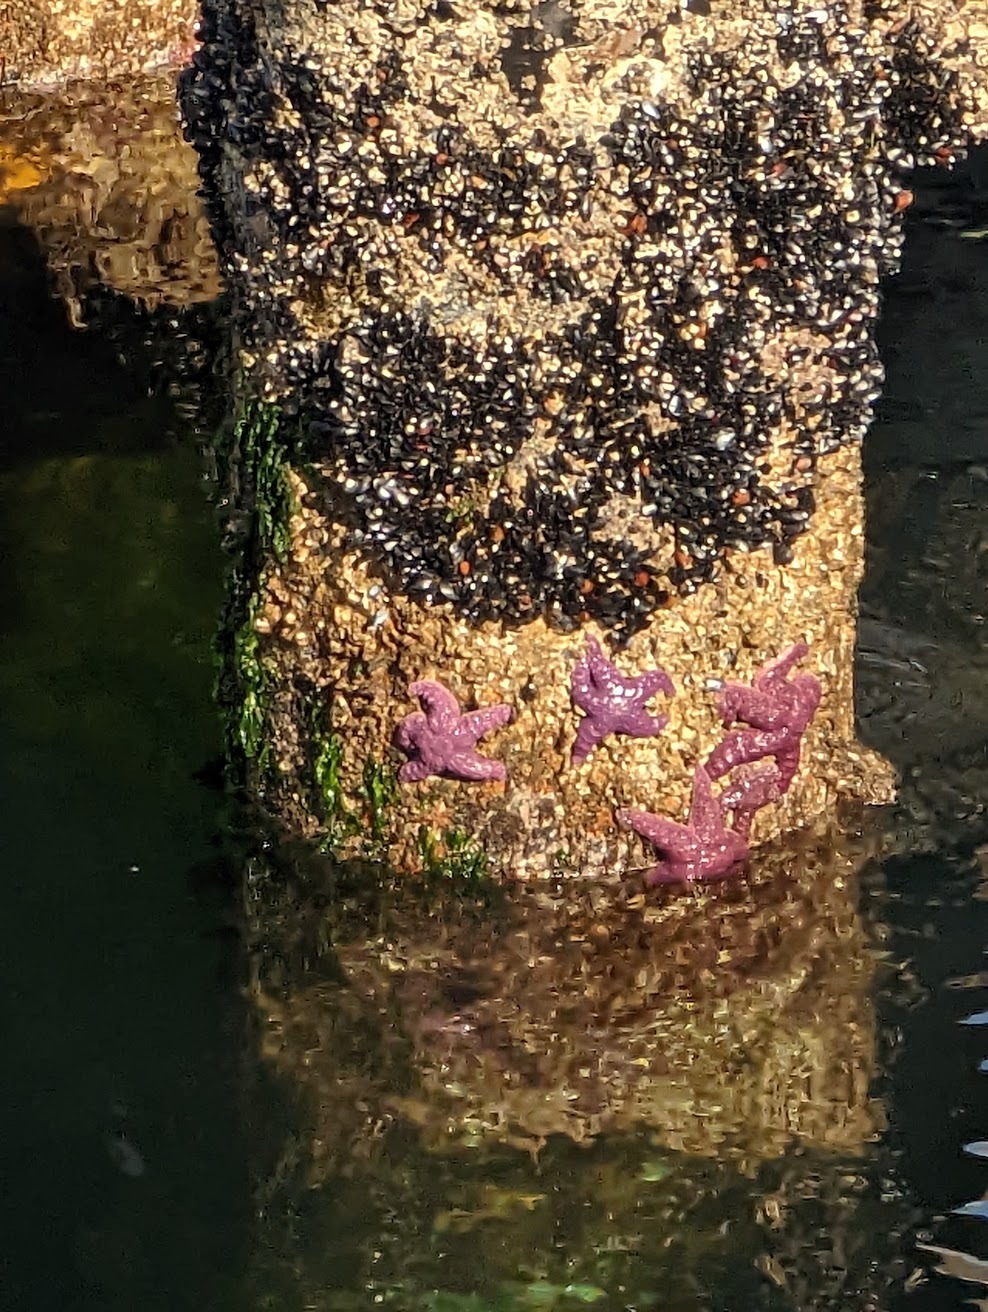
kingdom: Animalia
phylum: Echinodermata
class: Asteroidea
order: Forcipulatida
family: Asteriidae
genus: Pisaster
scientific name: Pisaster ochraceus
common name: Ochre stars
